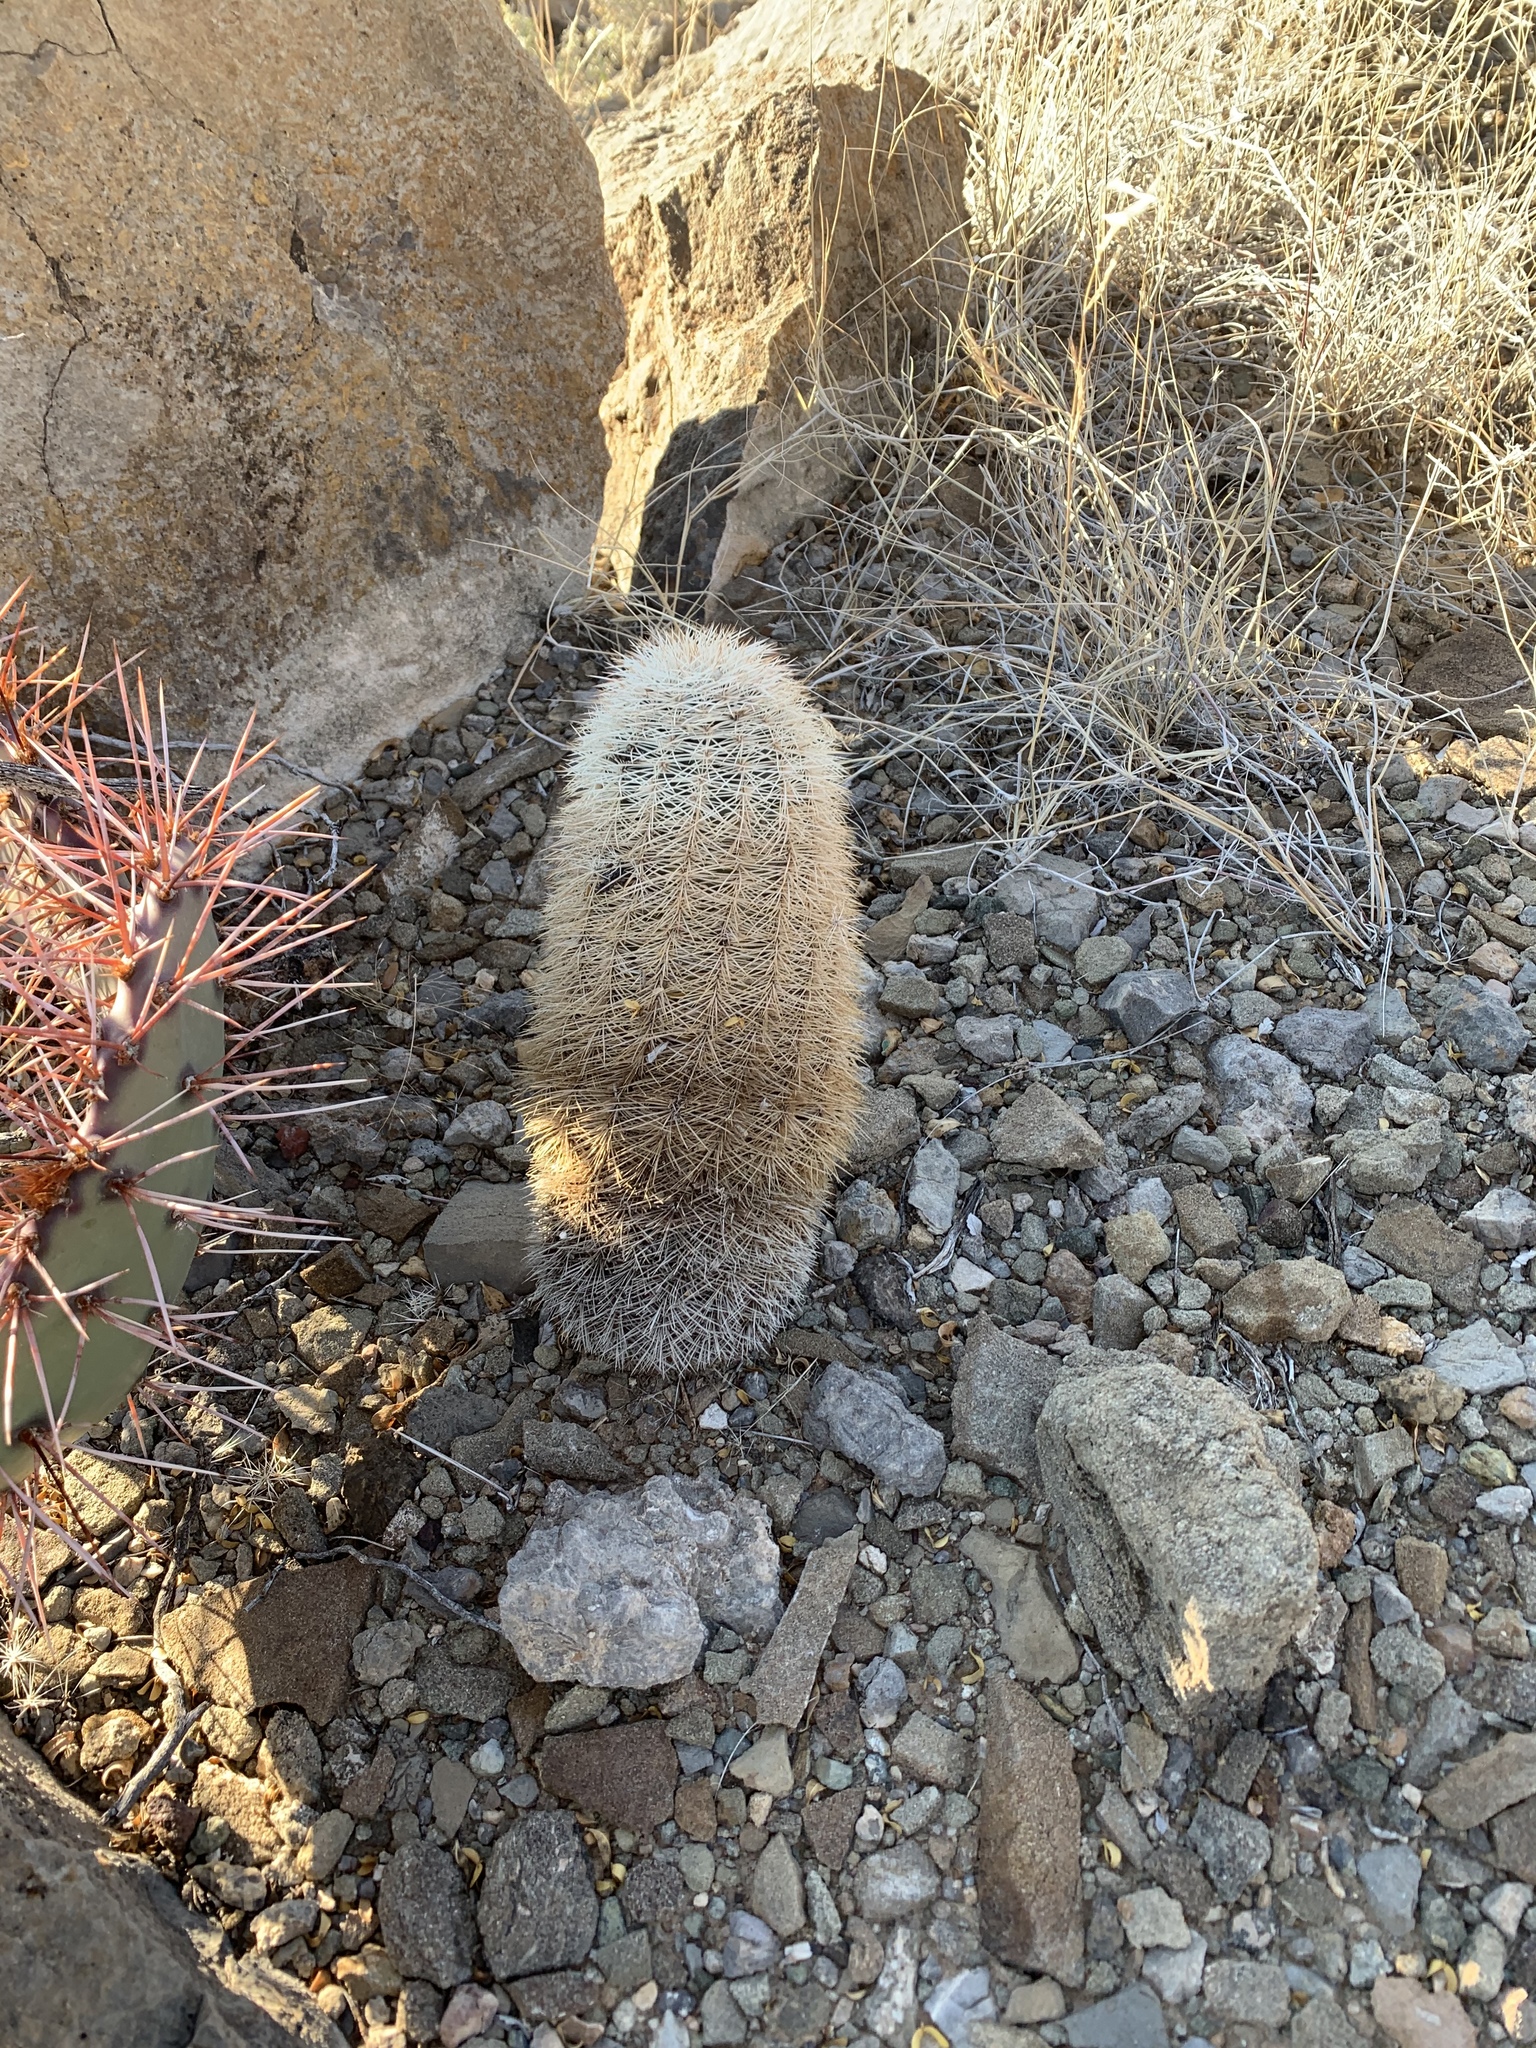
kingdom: Plantae
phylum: Tracheophyta
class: Magnoliopsida
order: Caryophyllales
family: Cactaceae
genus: Echinocereus
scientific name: Echinocereus dasyacanthus
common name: Spiny hedgehog cactus
